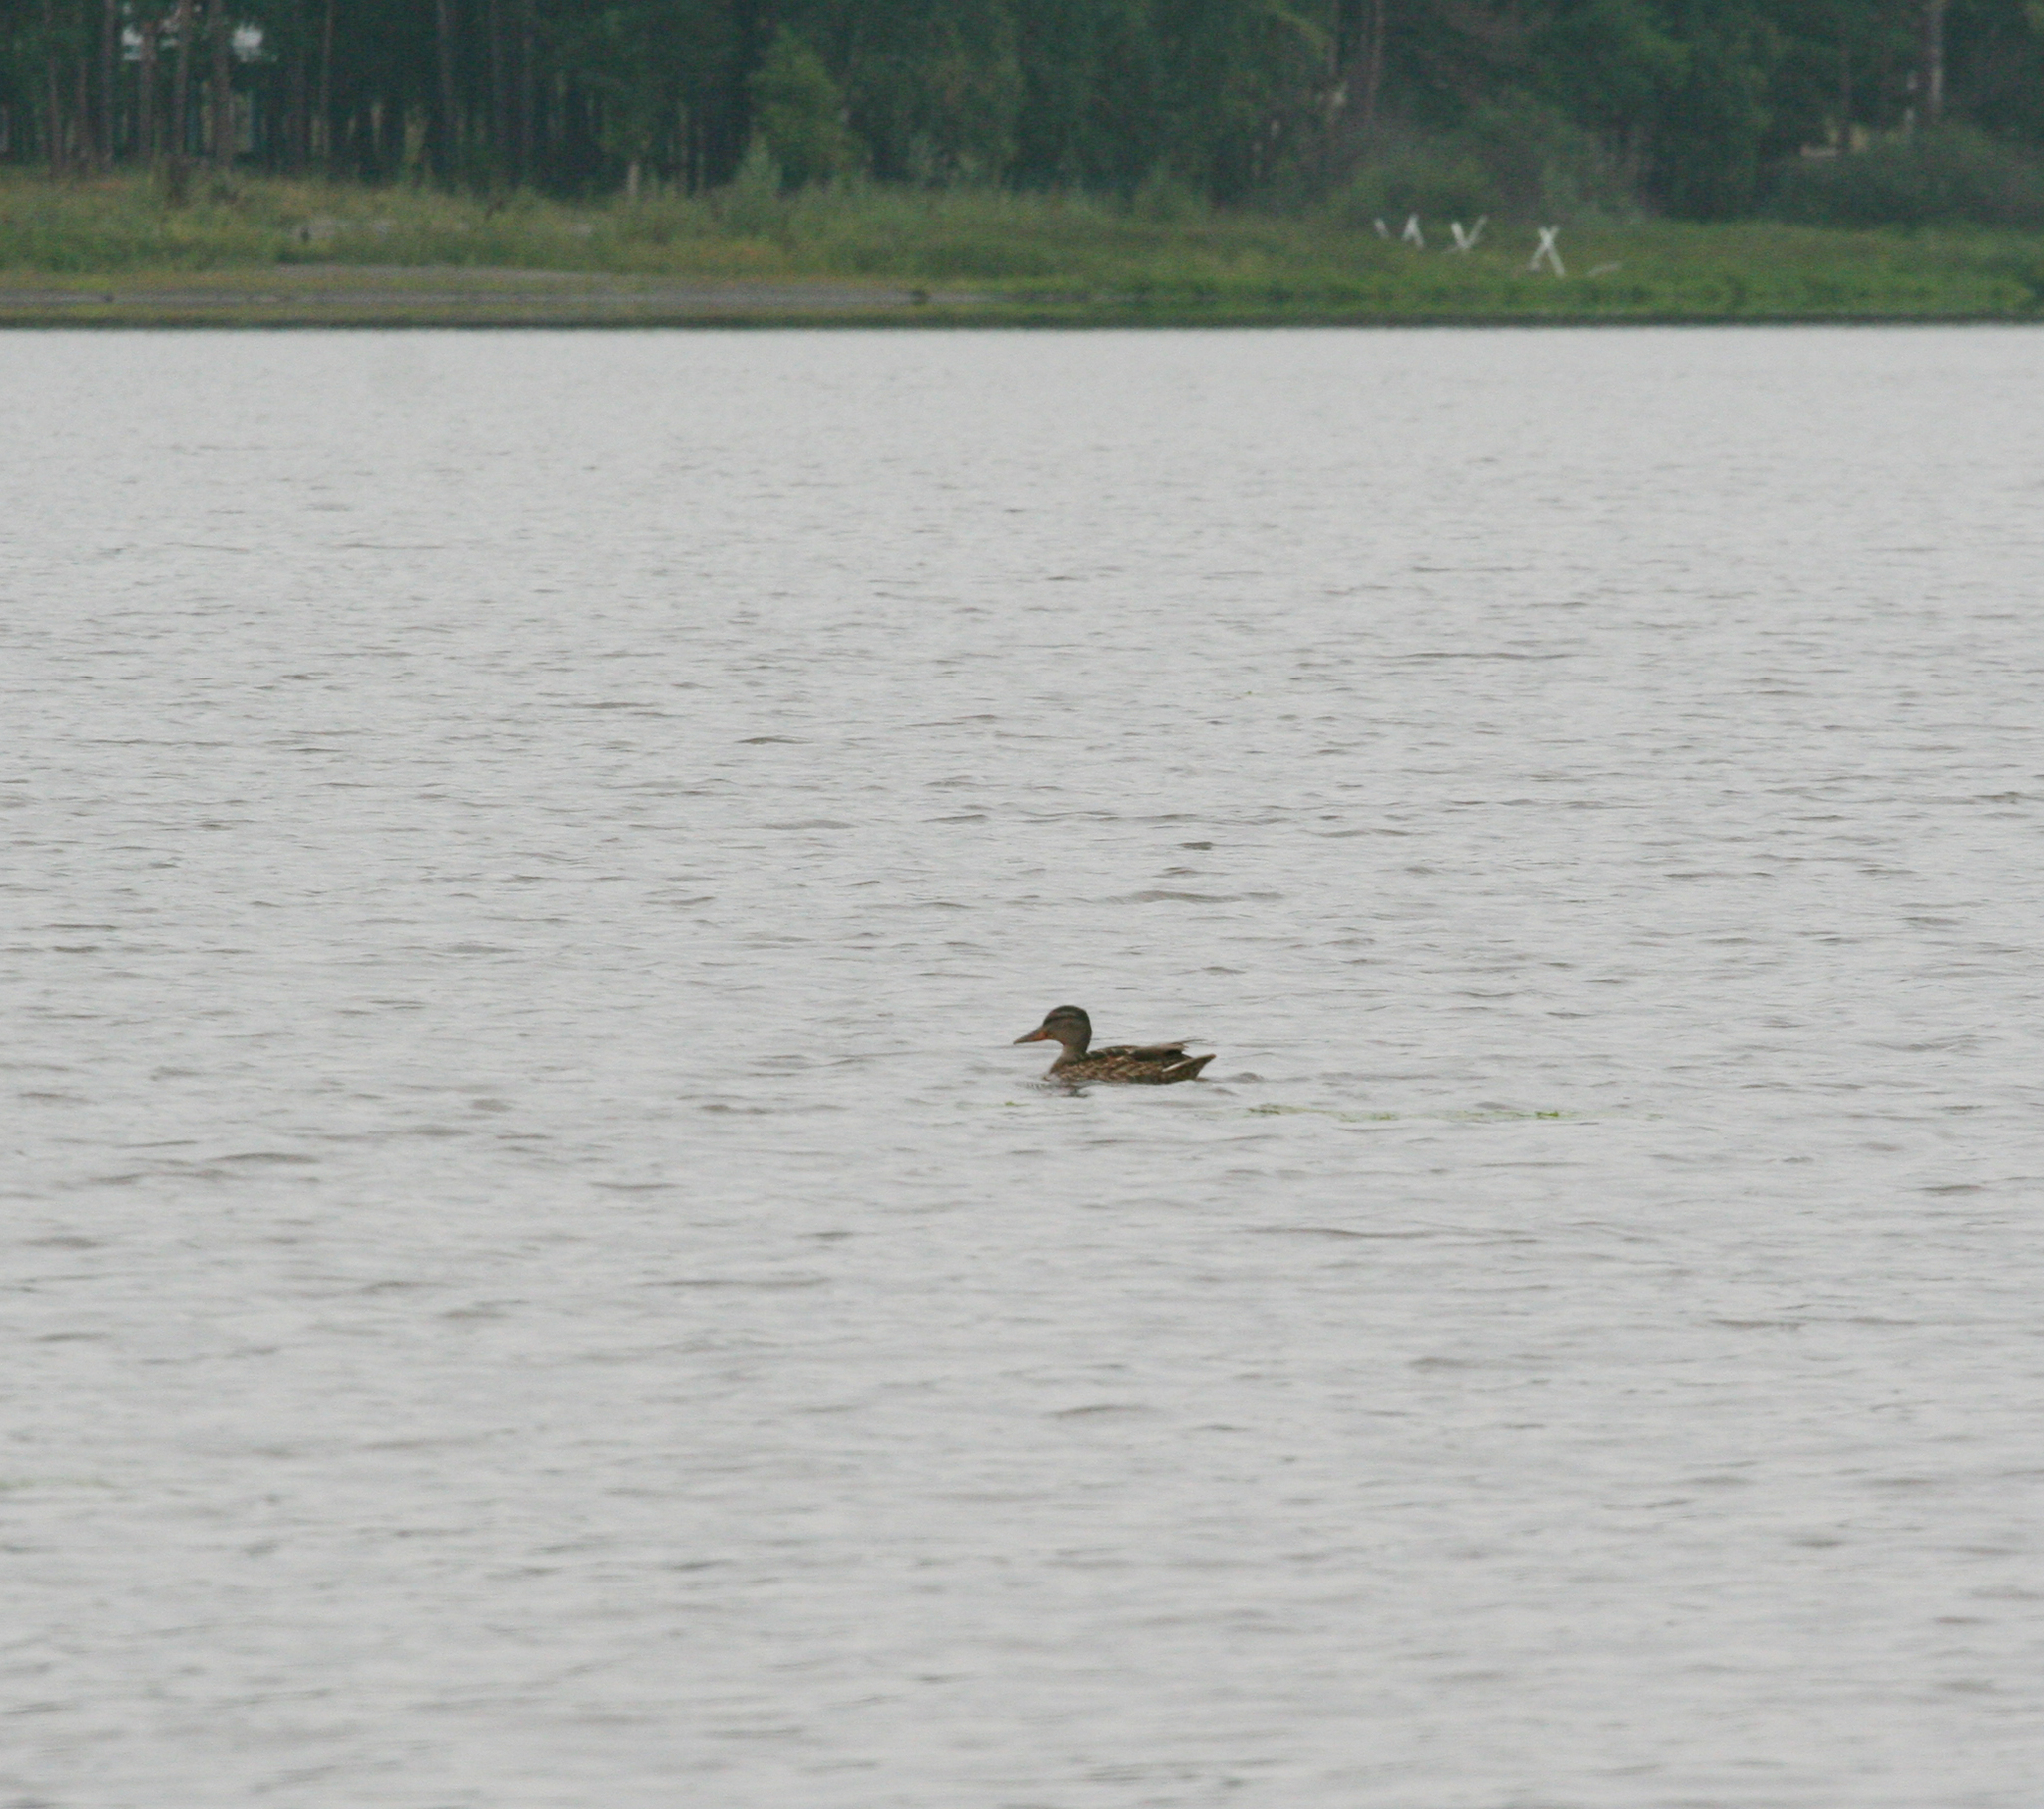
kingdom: Animalia
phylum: Chordata
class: Aves
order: Anseriformes
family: Anatidae
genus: Anas
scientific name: Anas platyrhynchos
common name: Mallard
